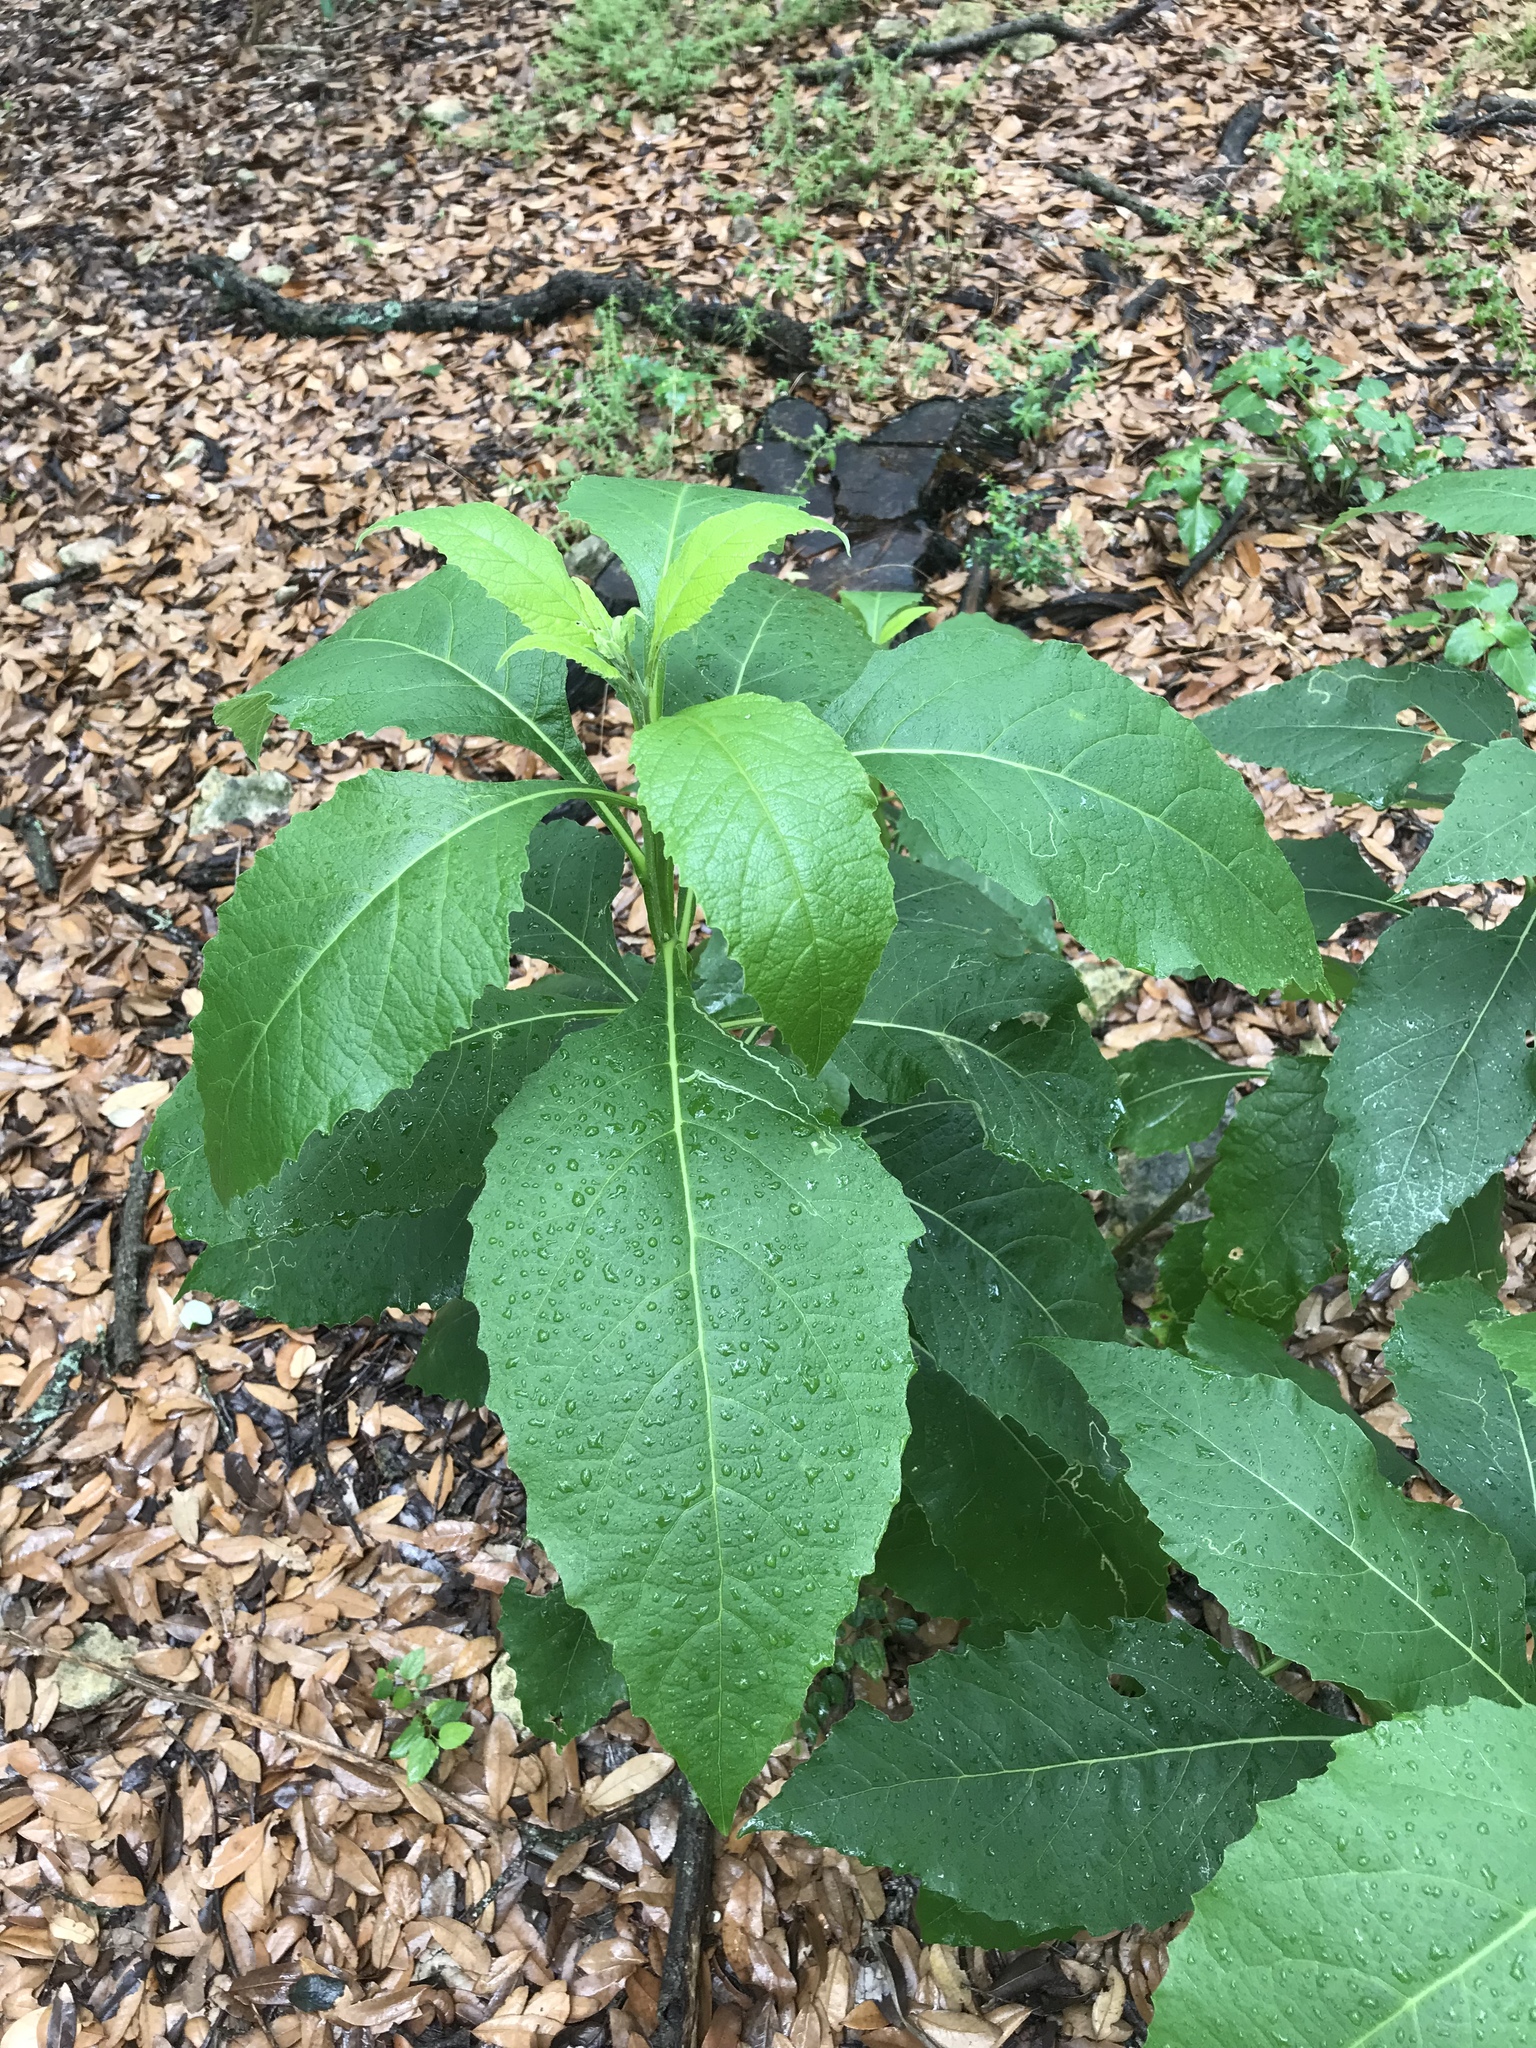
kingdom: Plantae
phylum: Tracheophyta
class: Magnoliopsida
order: Asterales
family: Asteraceae
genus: Verbesina
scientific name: Verbesina virginica
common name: Frostweed
